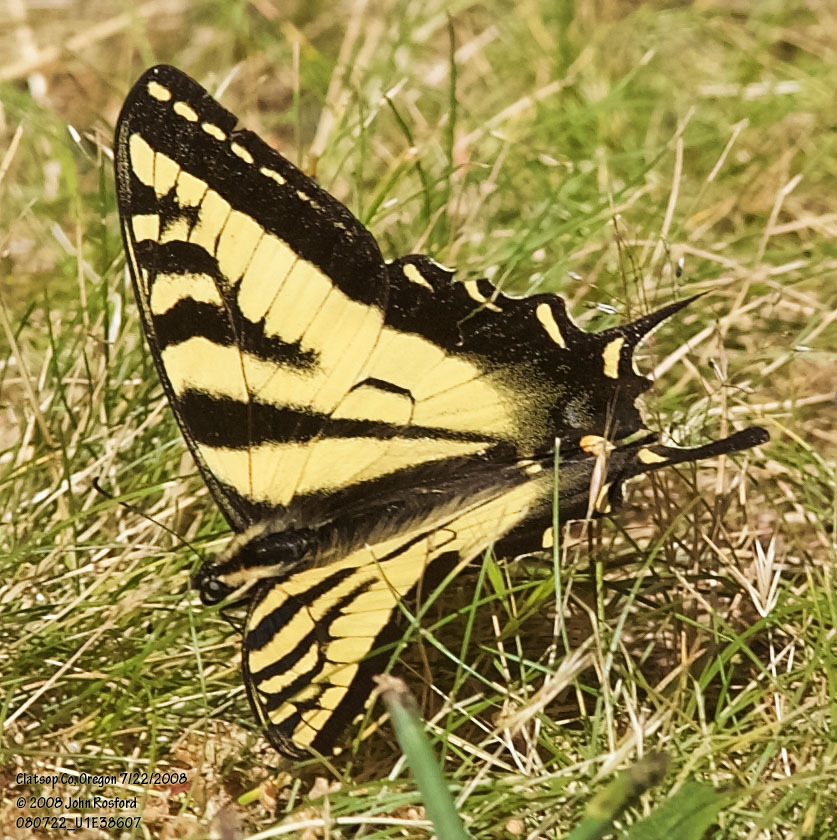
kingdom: Animalia
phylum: Arthropoda
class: Insecta
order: Lepidoptera
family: Papilionidae
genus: Papilio
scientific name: Papilio rutulus
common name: Western tiger swallowtail
